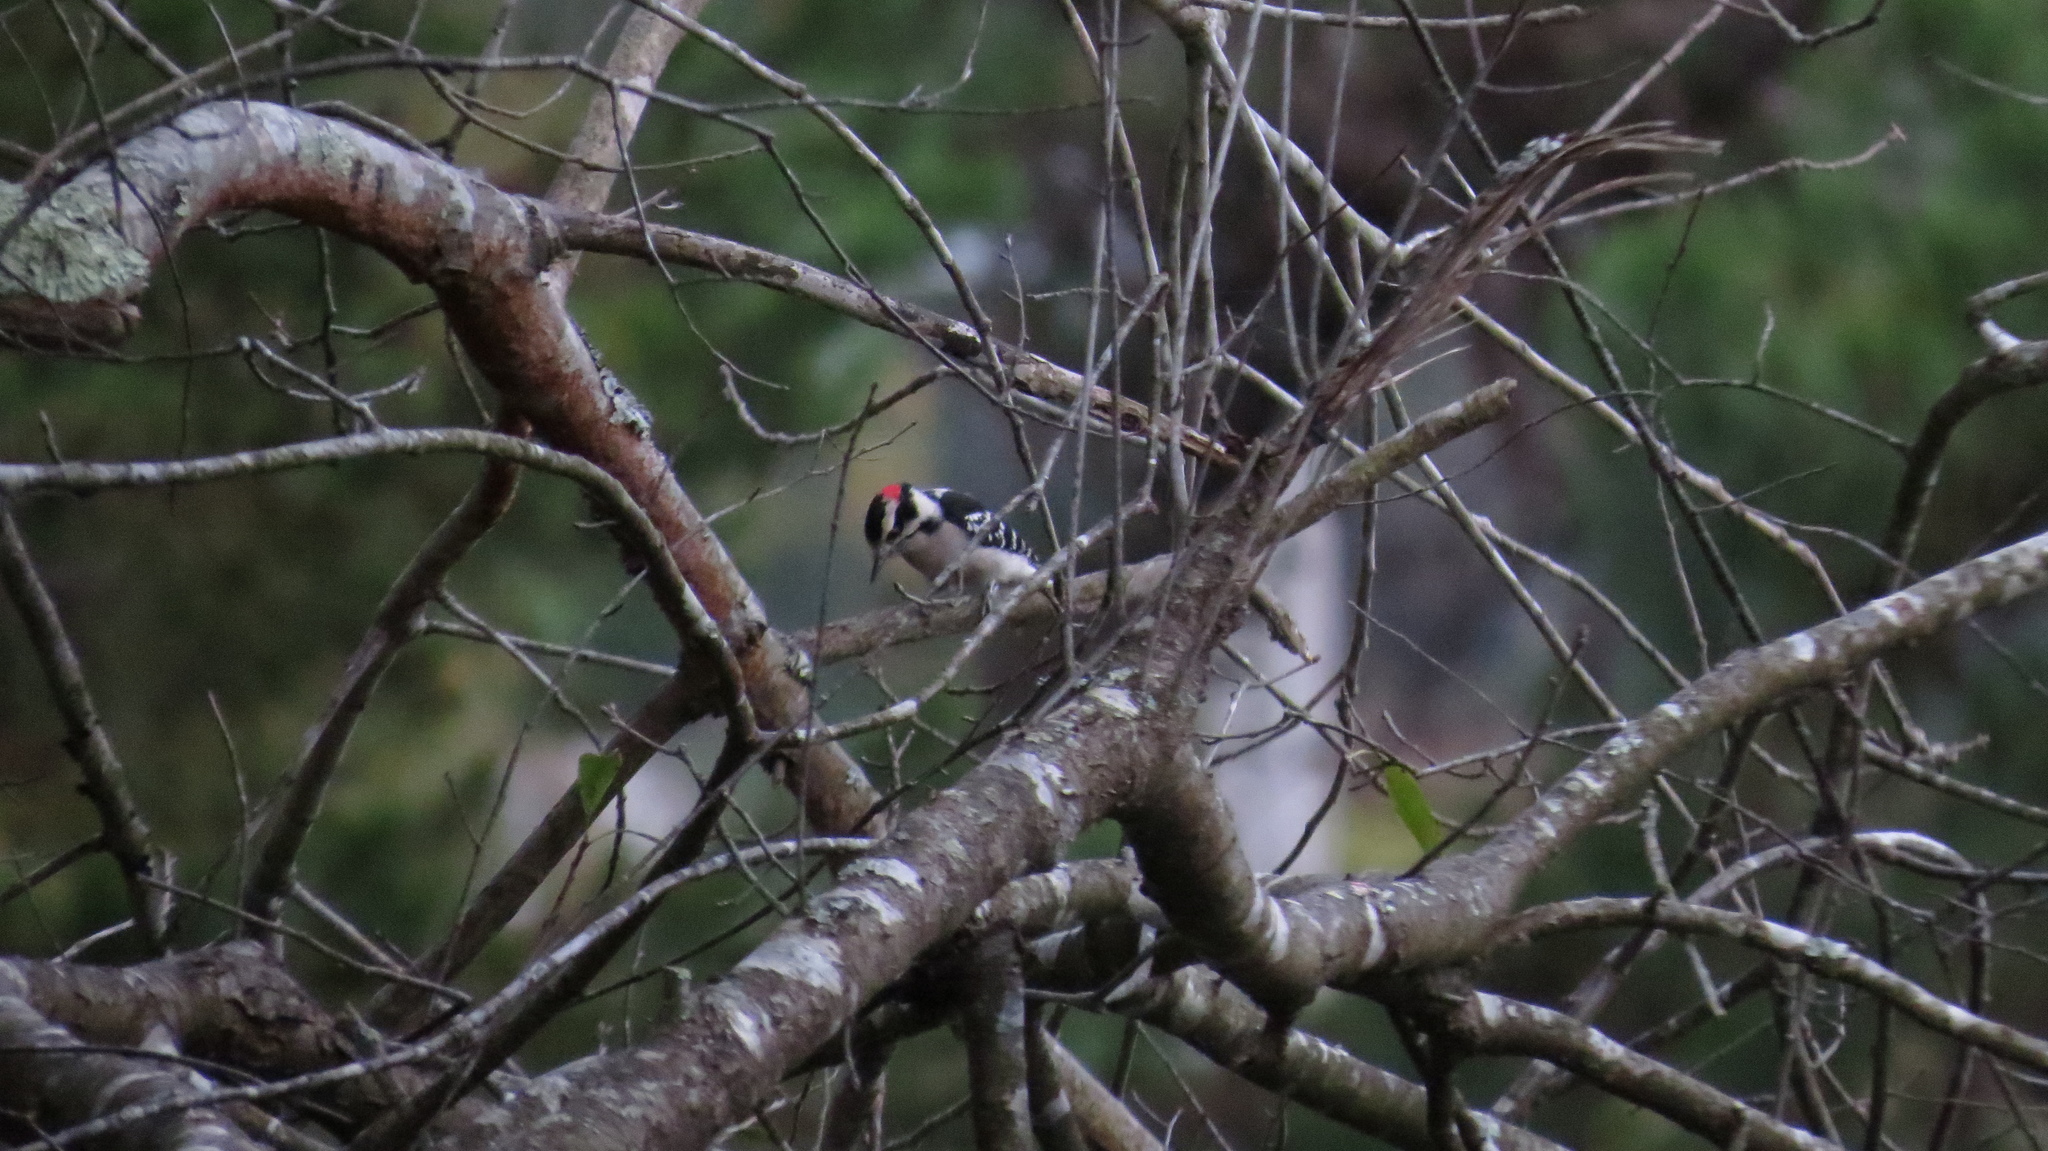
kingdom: Animalia
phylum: Chordata
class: Aves
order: Piciformes
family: Picidae
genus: Dryobates
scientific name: Dryobates pubescens
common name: Downy woodpecker
